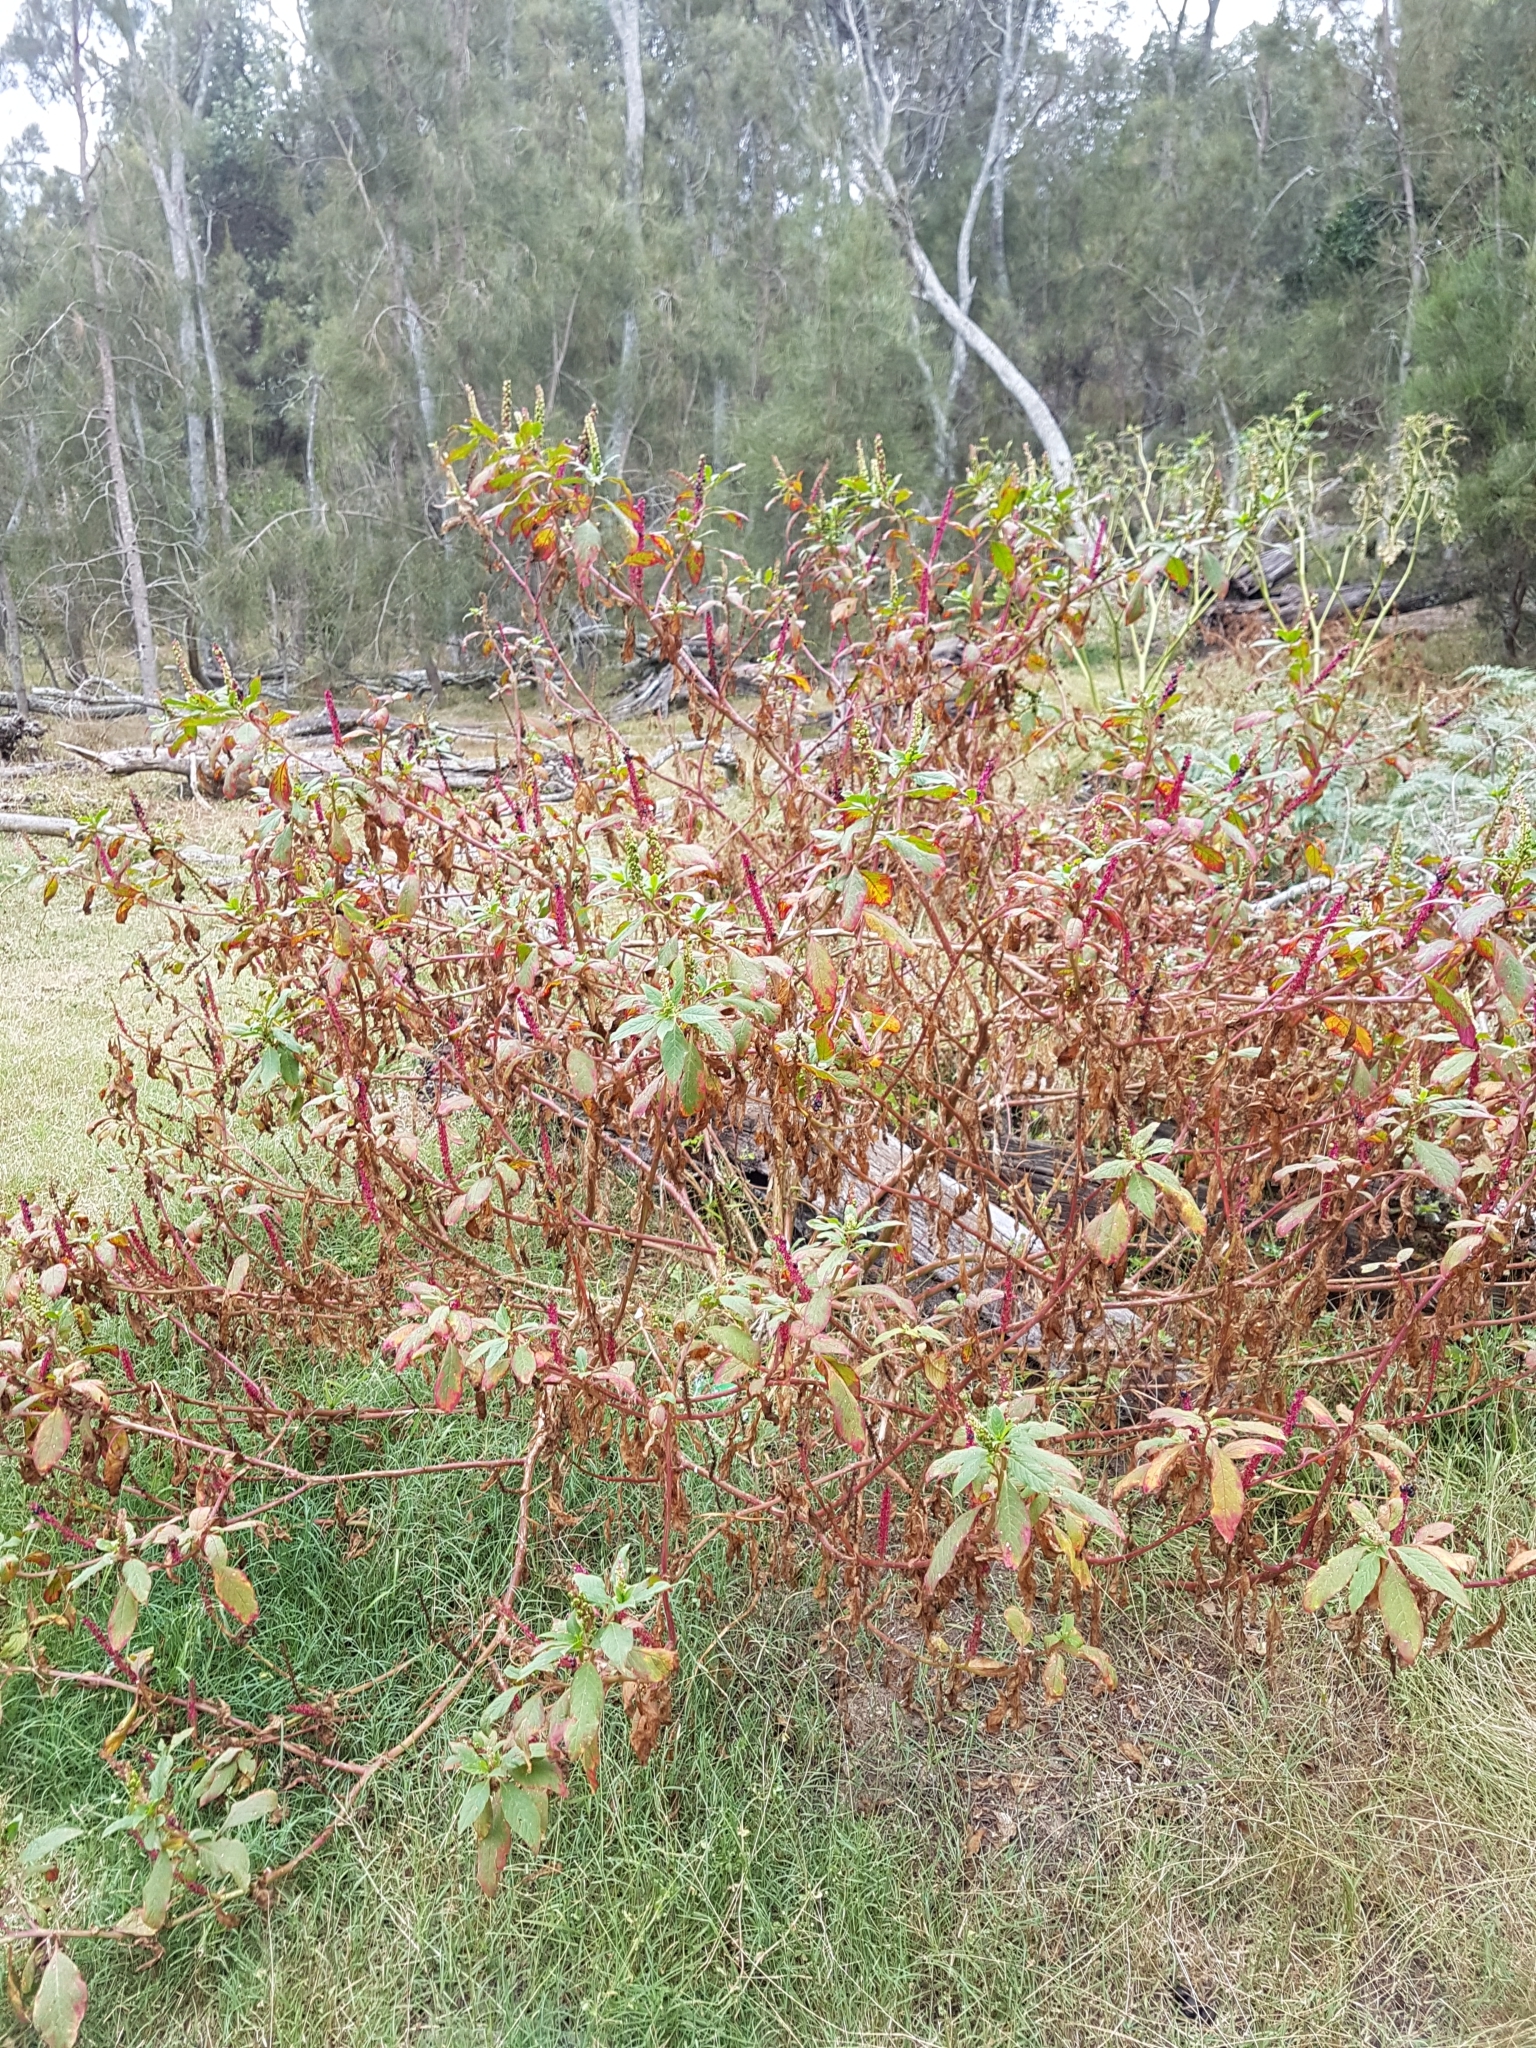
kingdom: Plantae
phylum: Tracheophyta
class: Magnoliopsida
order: Caryophyllales
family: Phytolaccaceae
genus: Phytolacca
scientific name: Phytolacca icosandra
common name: Button pokeweed
